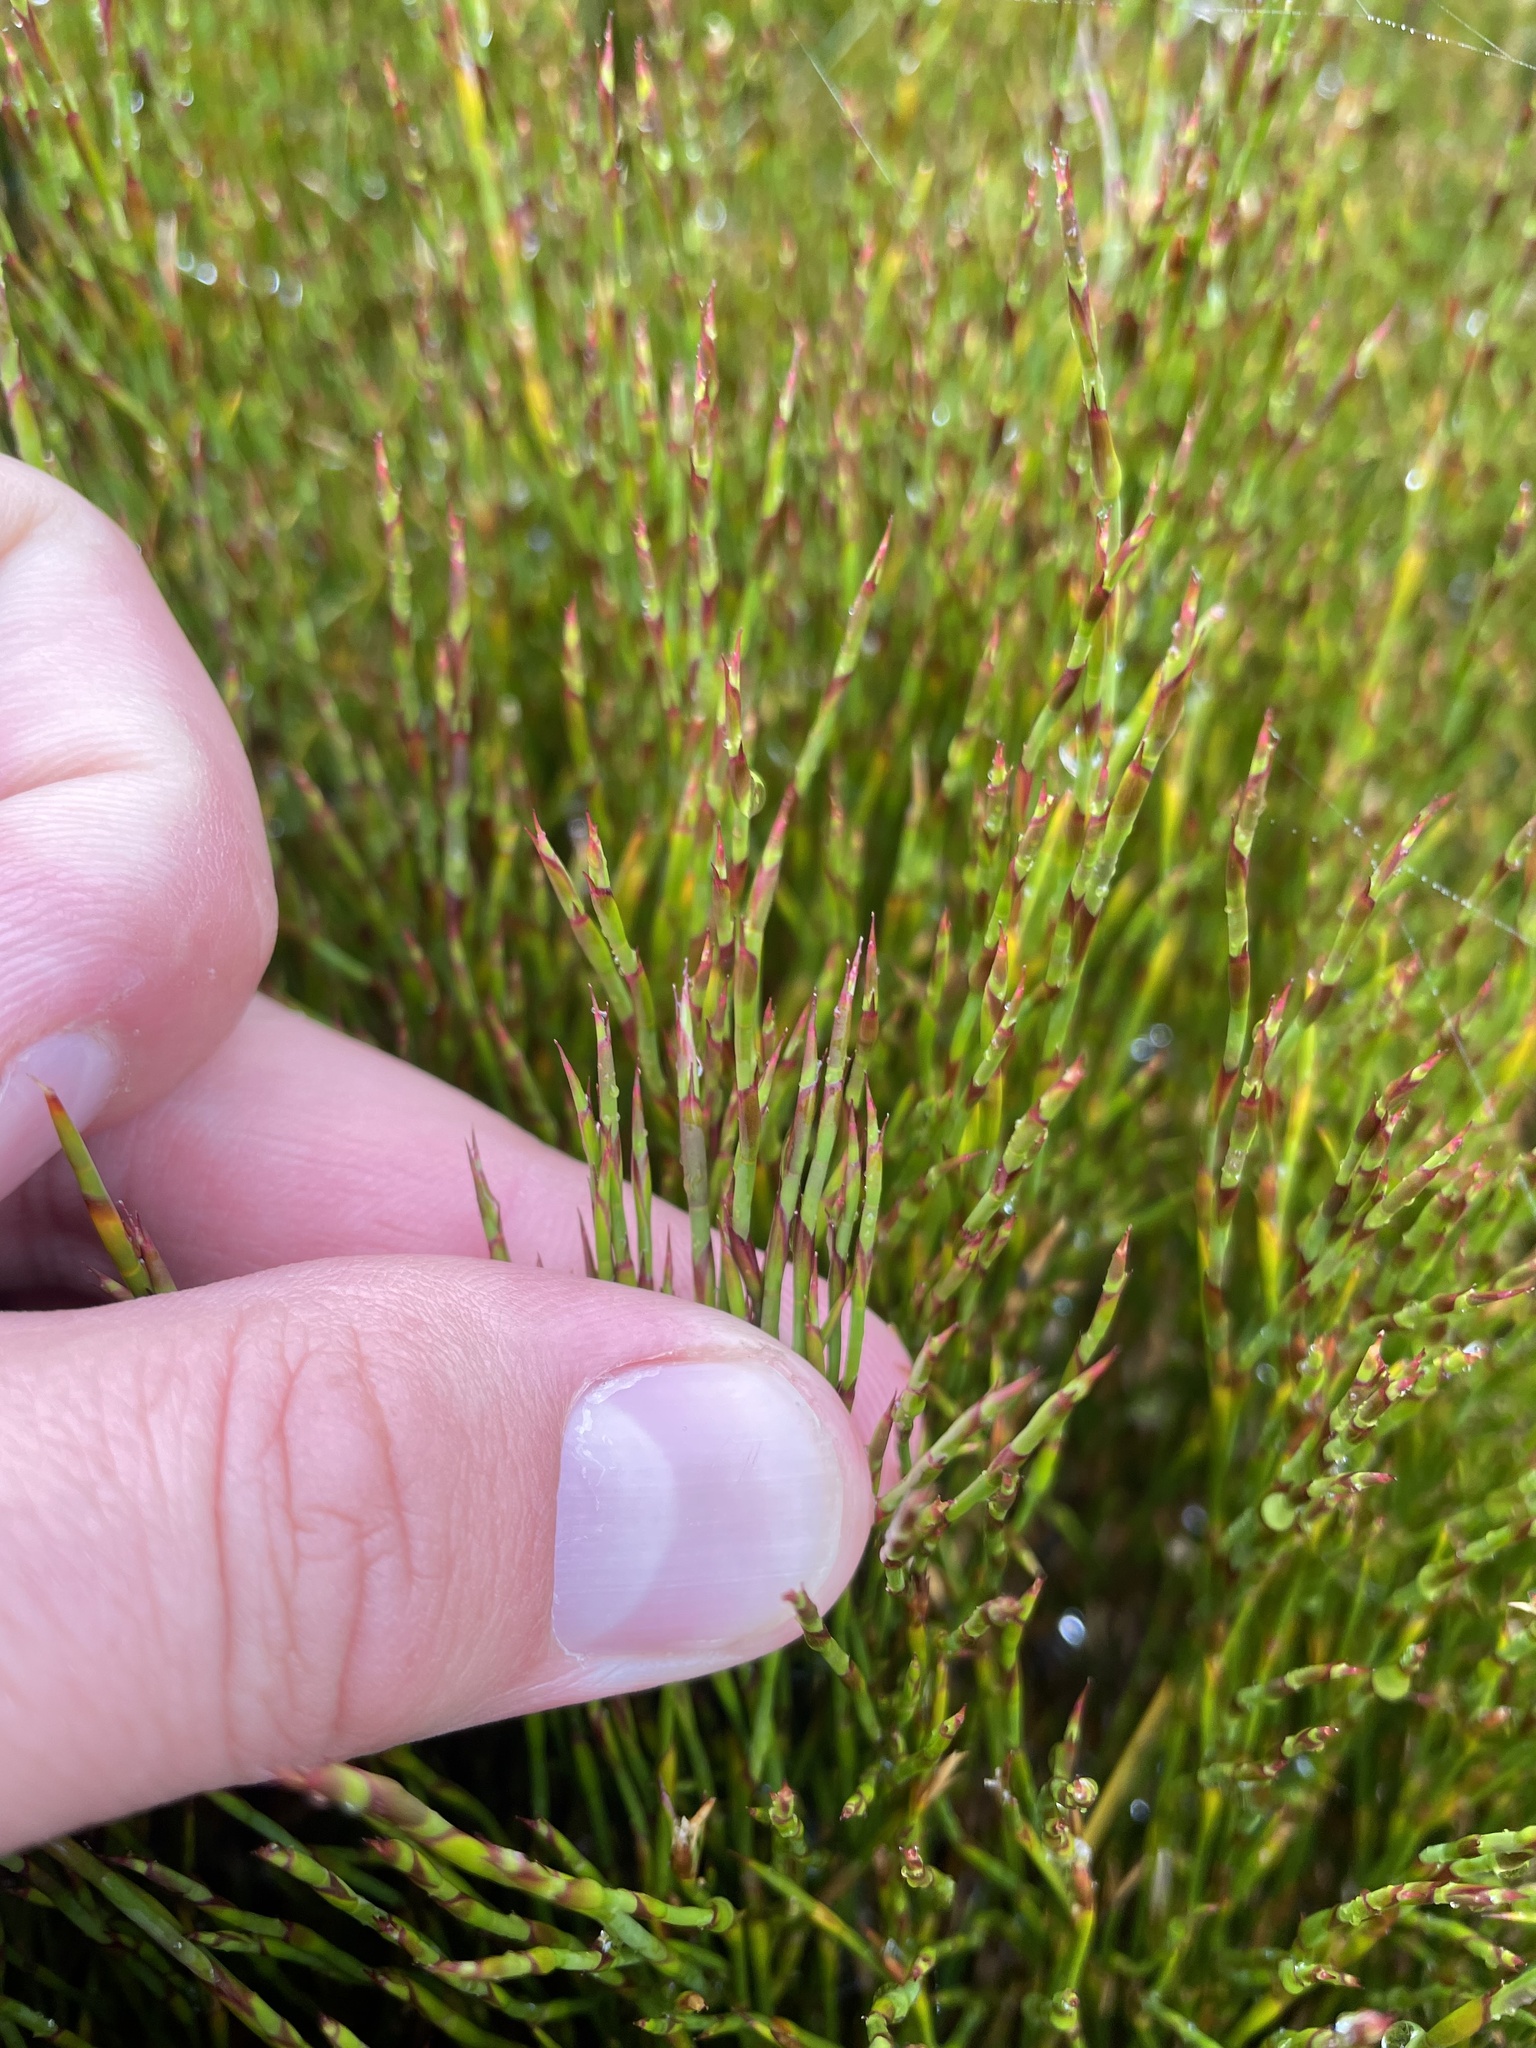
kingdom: Plantae
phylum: Tracheophyta
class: Liliopsida
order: Poales
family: Restionaceae
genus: Empodisma
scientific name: Empodisma minus
